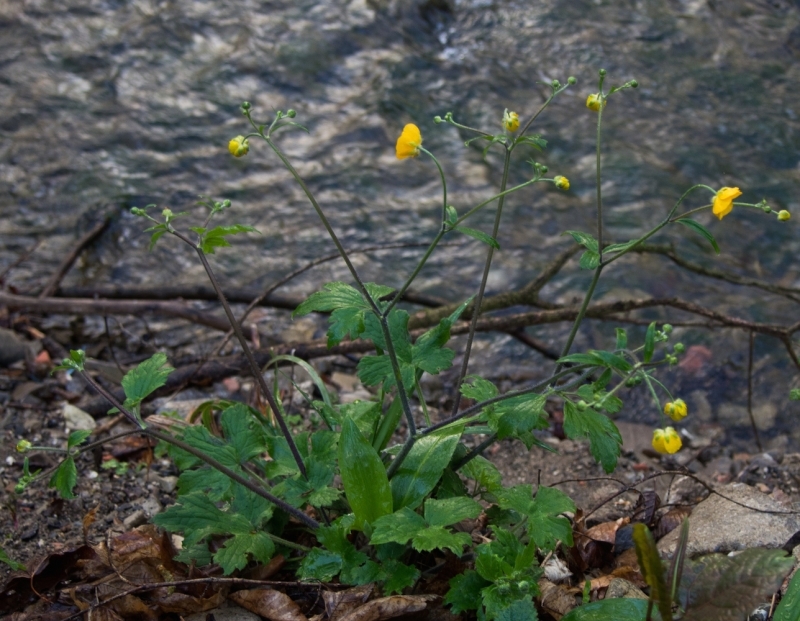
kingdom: Plantae
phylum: Tracheophyta
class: Magnoliopsida
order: Ranunculales
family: Ranunculaceae
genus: Ranunculus
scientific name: Ranunculus lanuginosus
